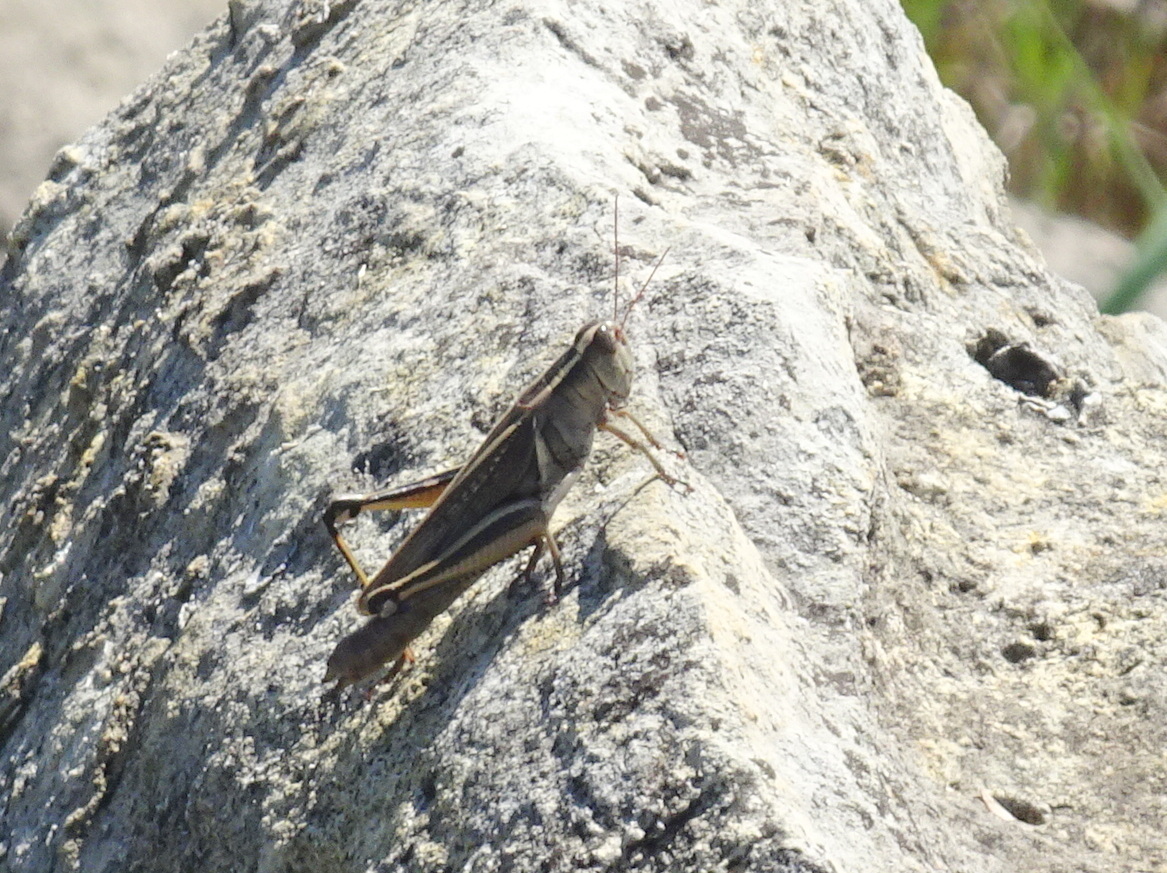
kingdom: Animalia
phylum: Arthropoda
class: Insecta
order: Orthoptera
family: Acrididae
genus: Melanoplus
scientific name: Melanoplus bivittatus
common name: Two-striped grasshopper
